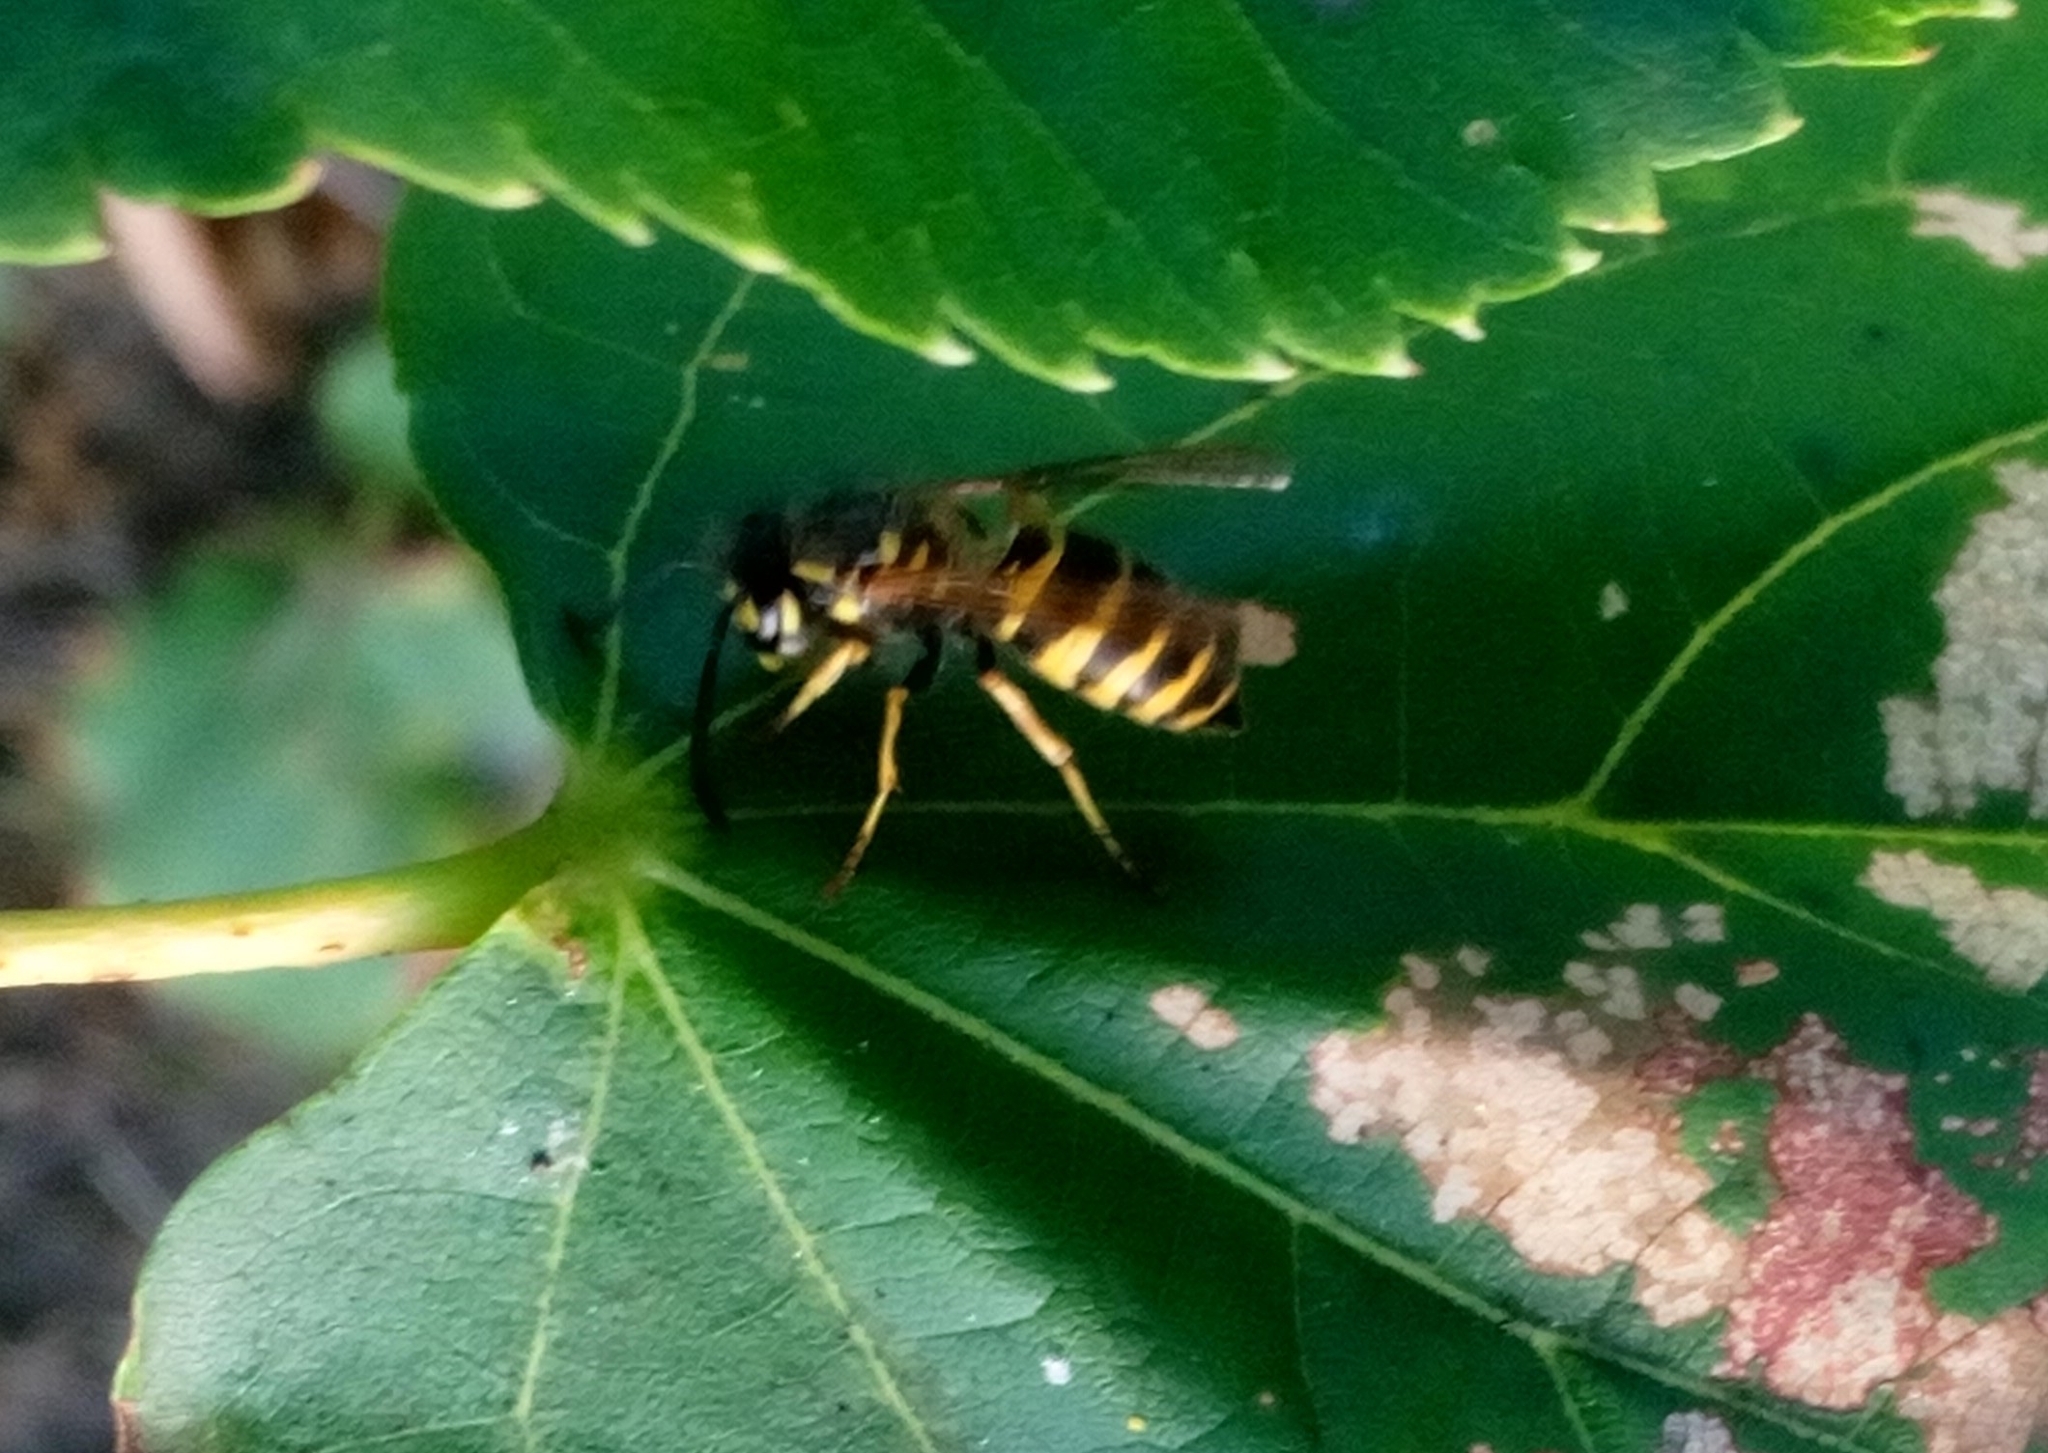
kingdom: Animalia
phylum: Arthropoda
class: Insecta
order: Hymenoptera
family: Vespidae
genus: Vespula
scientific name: Vespula vulgaris
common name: Common wasp
